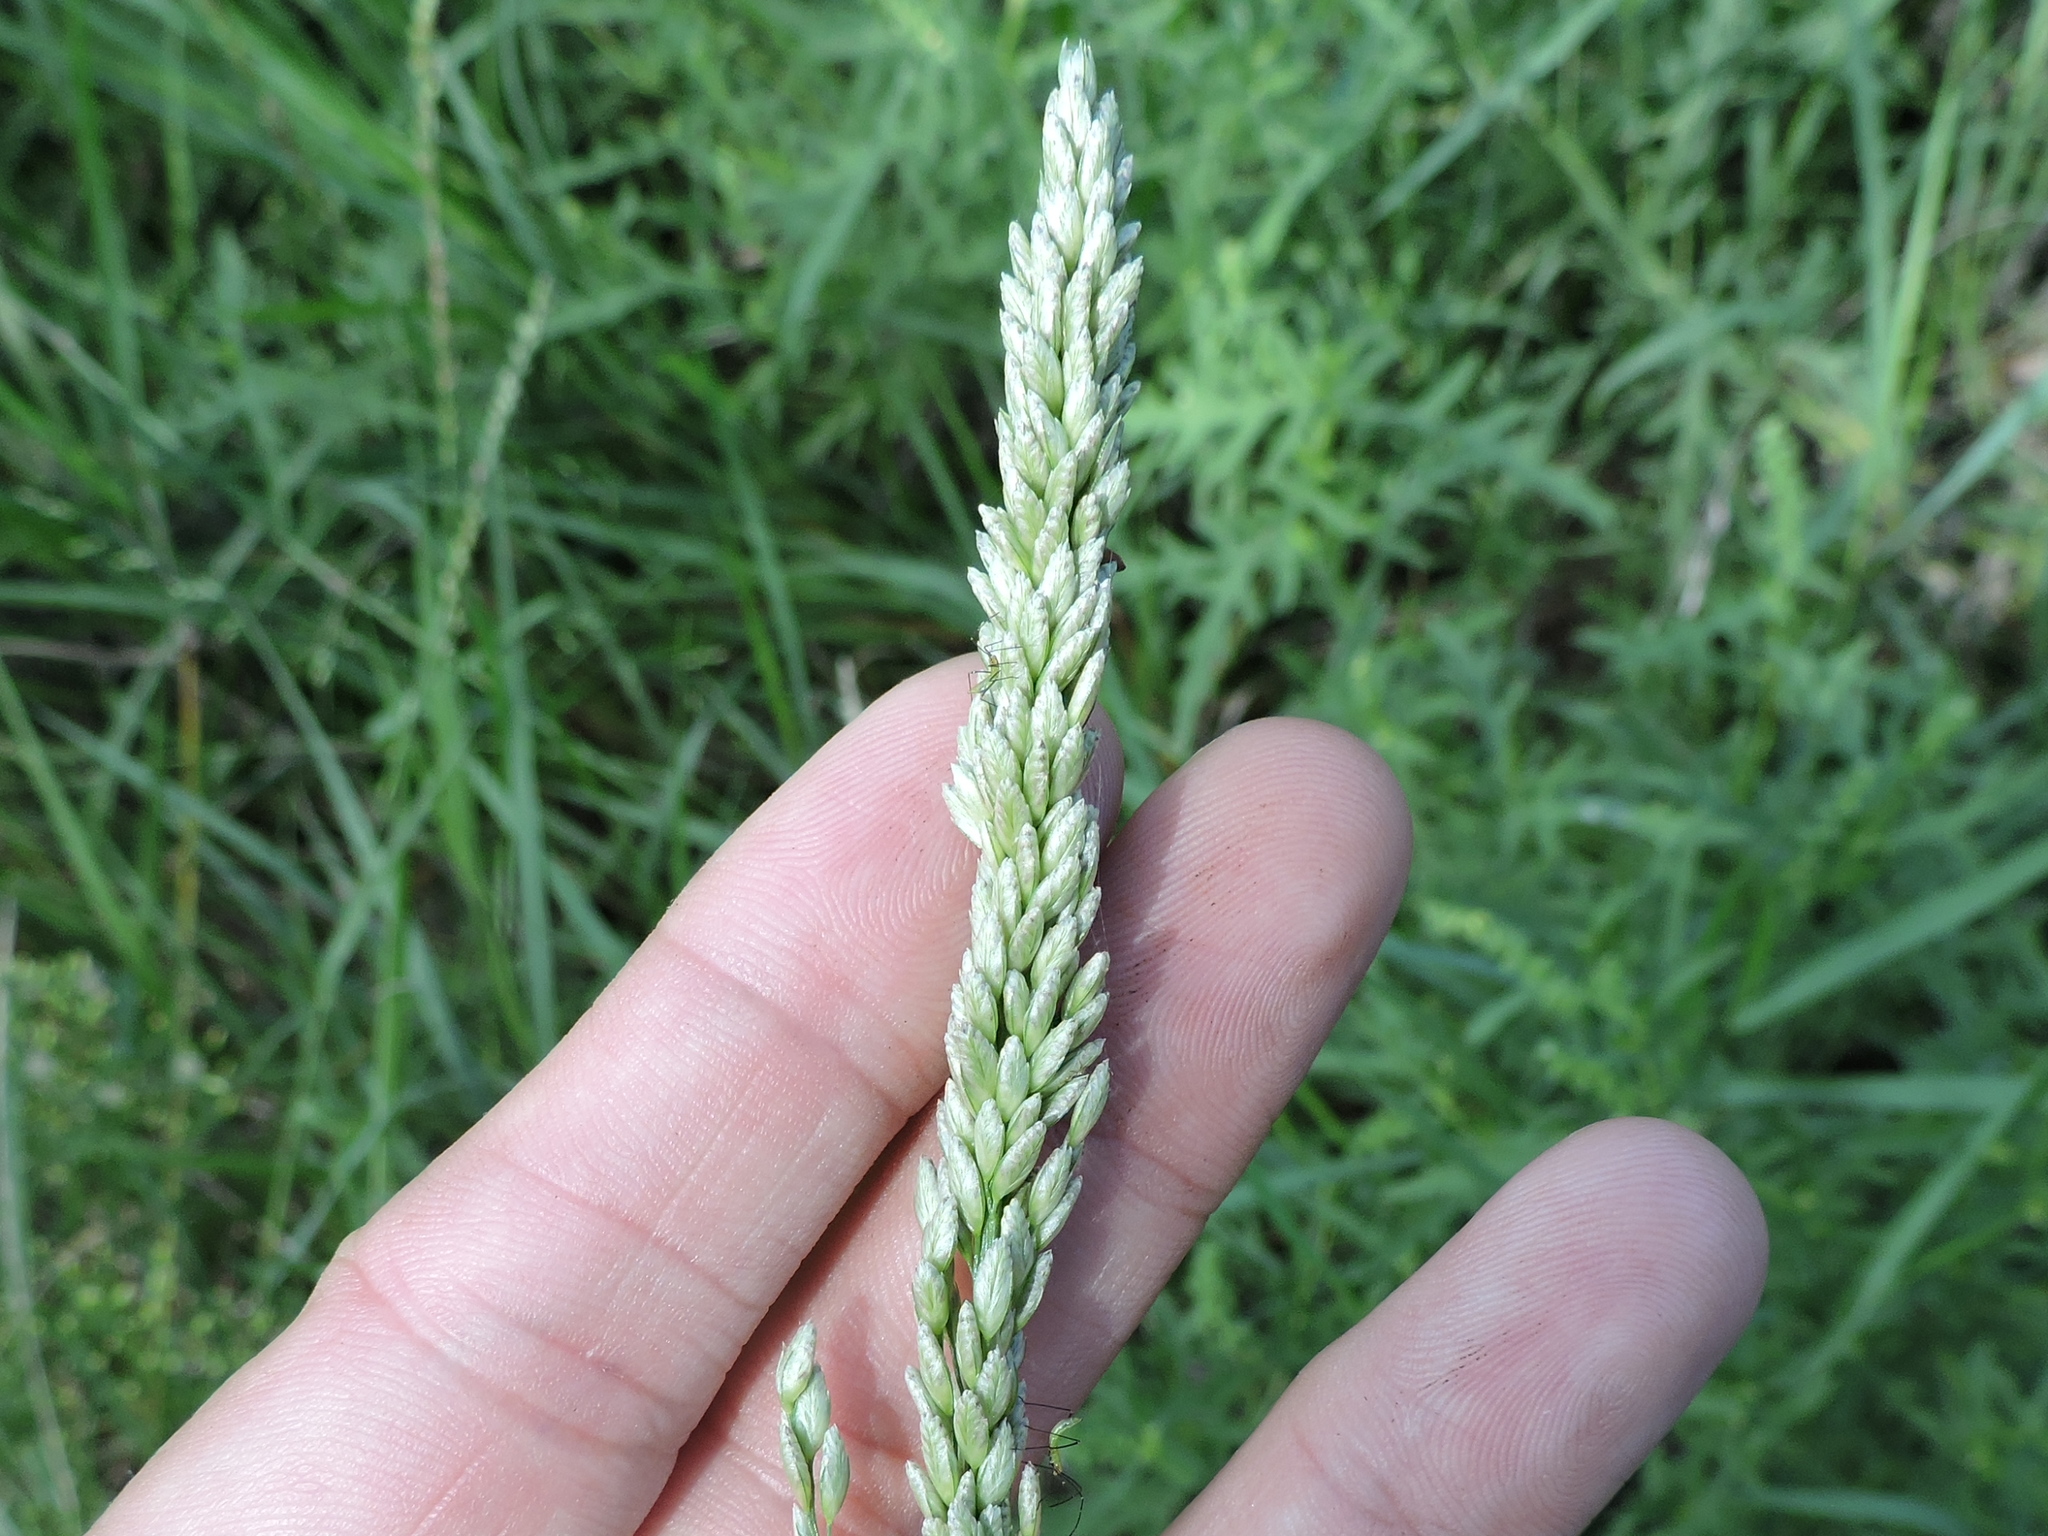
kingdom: Plantae
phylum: Tracheophyta
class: Liliopsida
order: Poales
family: Poaceae
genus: Tridens
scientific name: Tridens albescens
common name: White tridens
